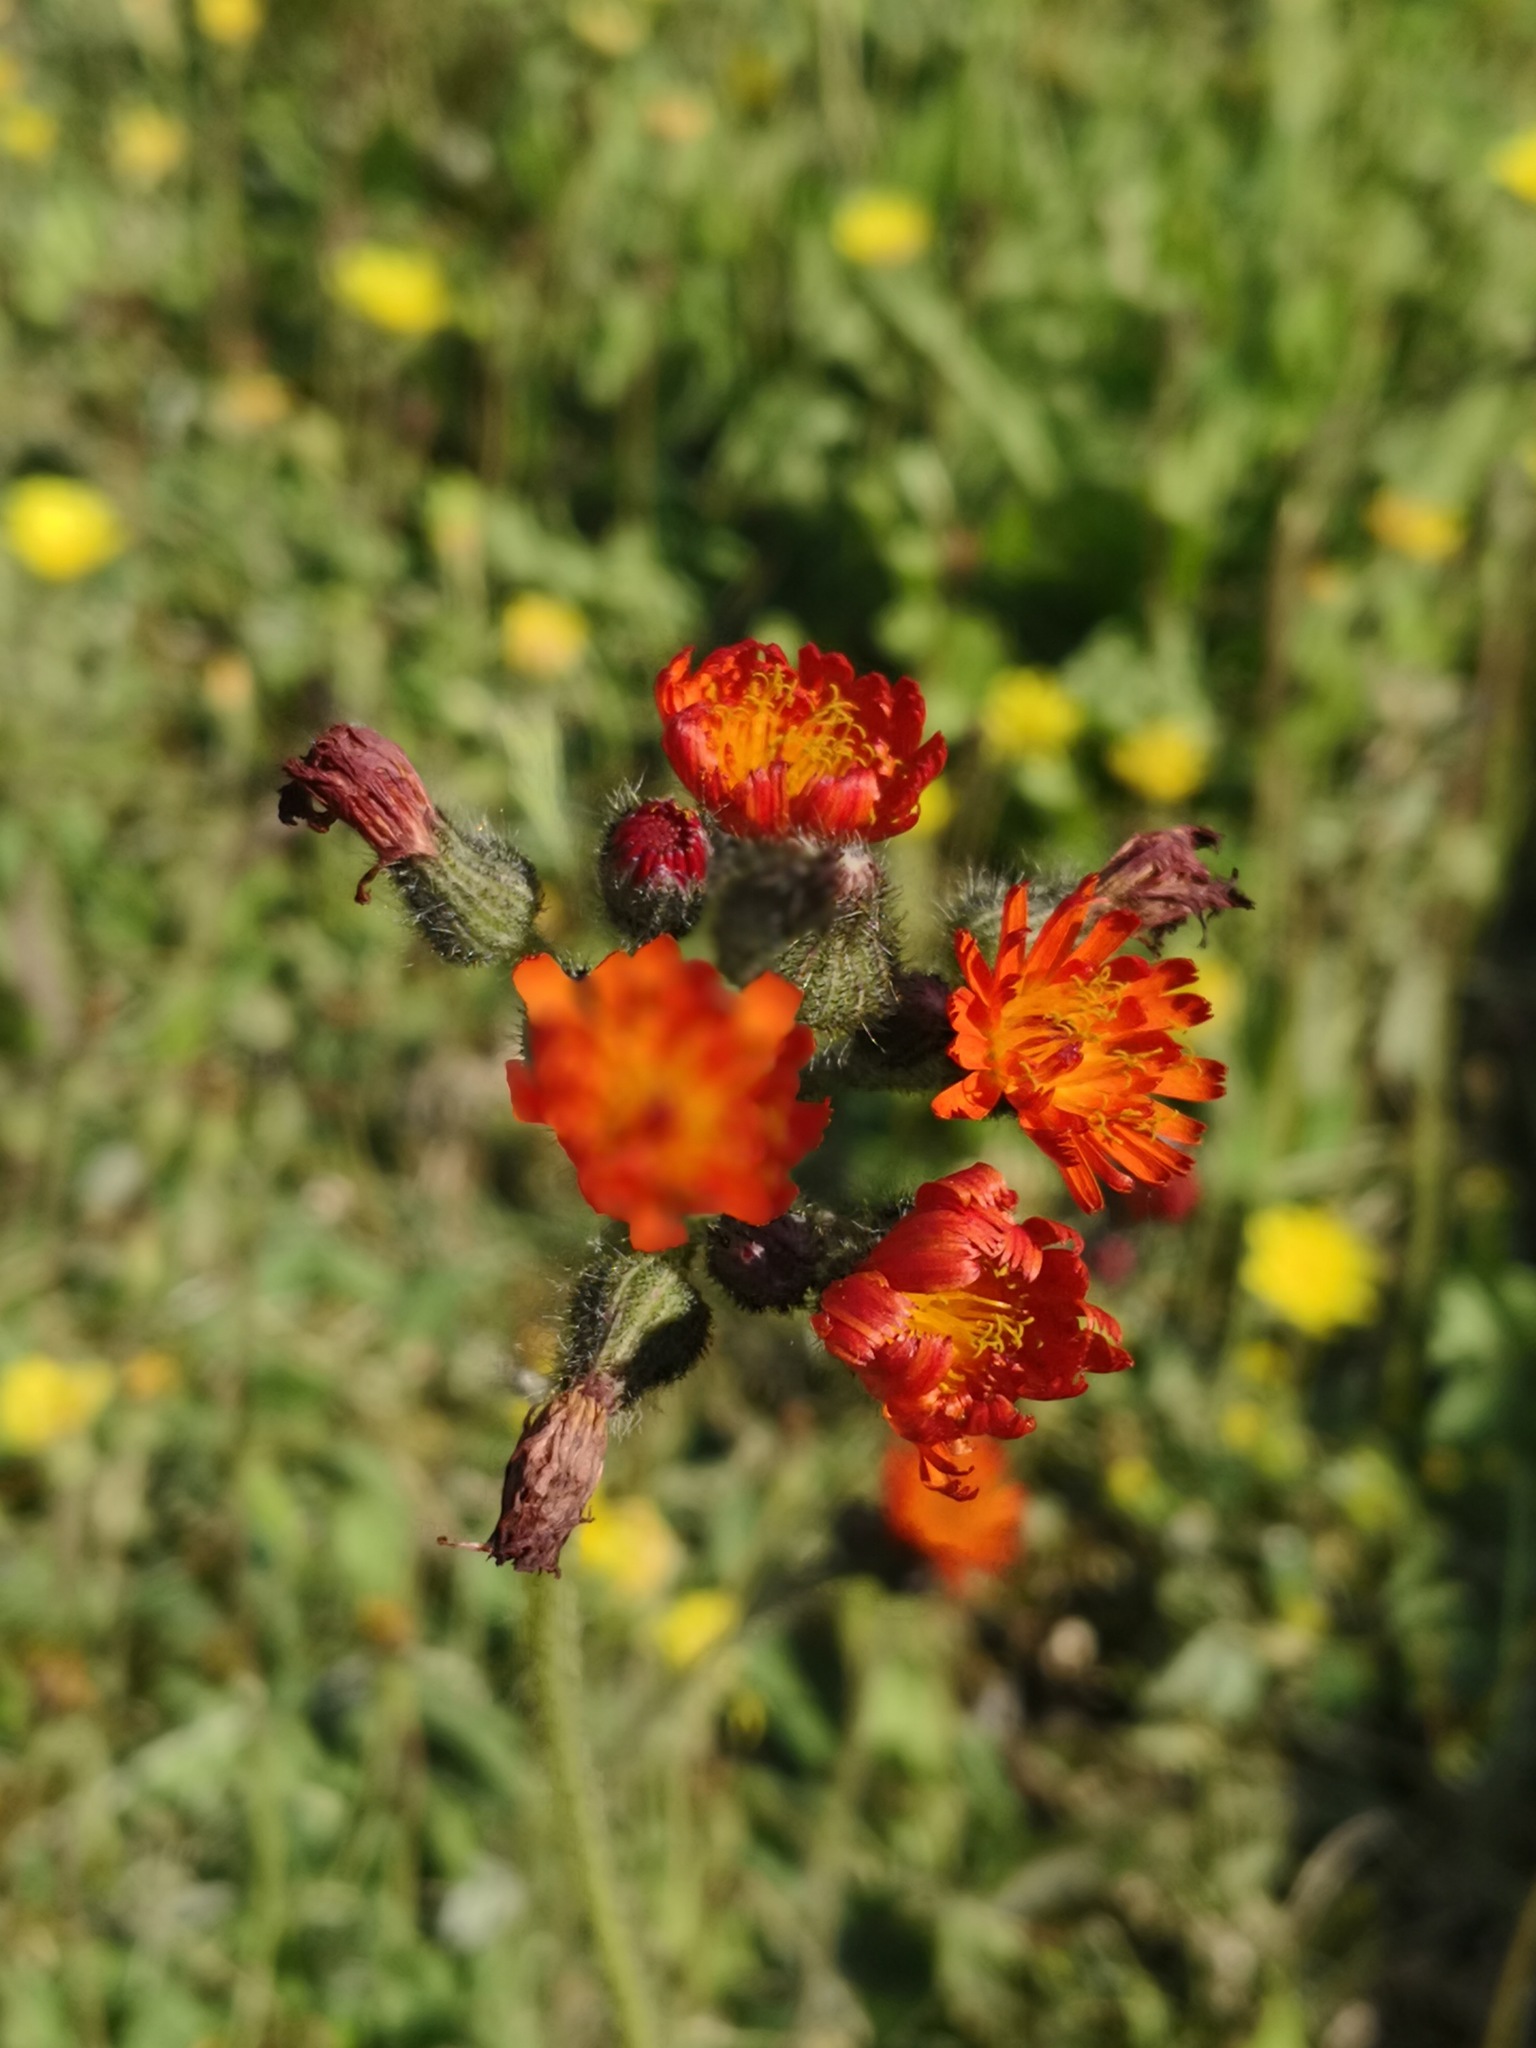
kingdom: Plantae
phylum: Tracheophyta
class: Magnoliopsida
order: Asterales
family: Asteraceae
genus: Pilosella
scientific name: Pilosella aurantiaca
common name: Fox-and-cubs
